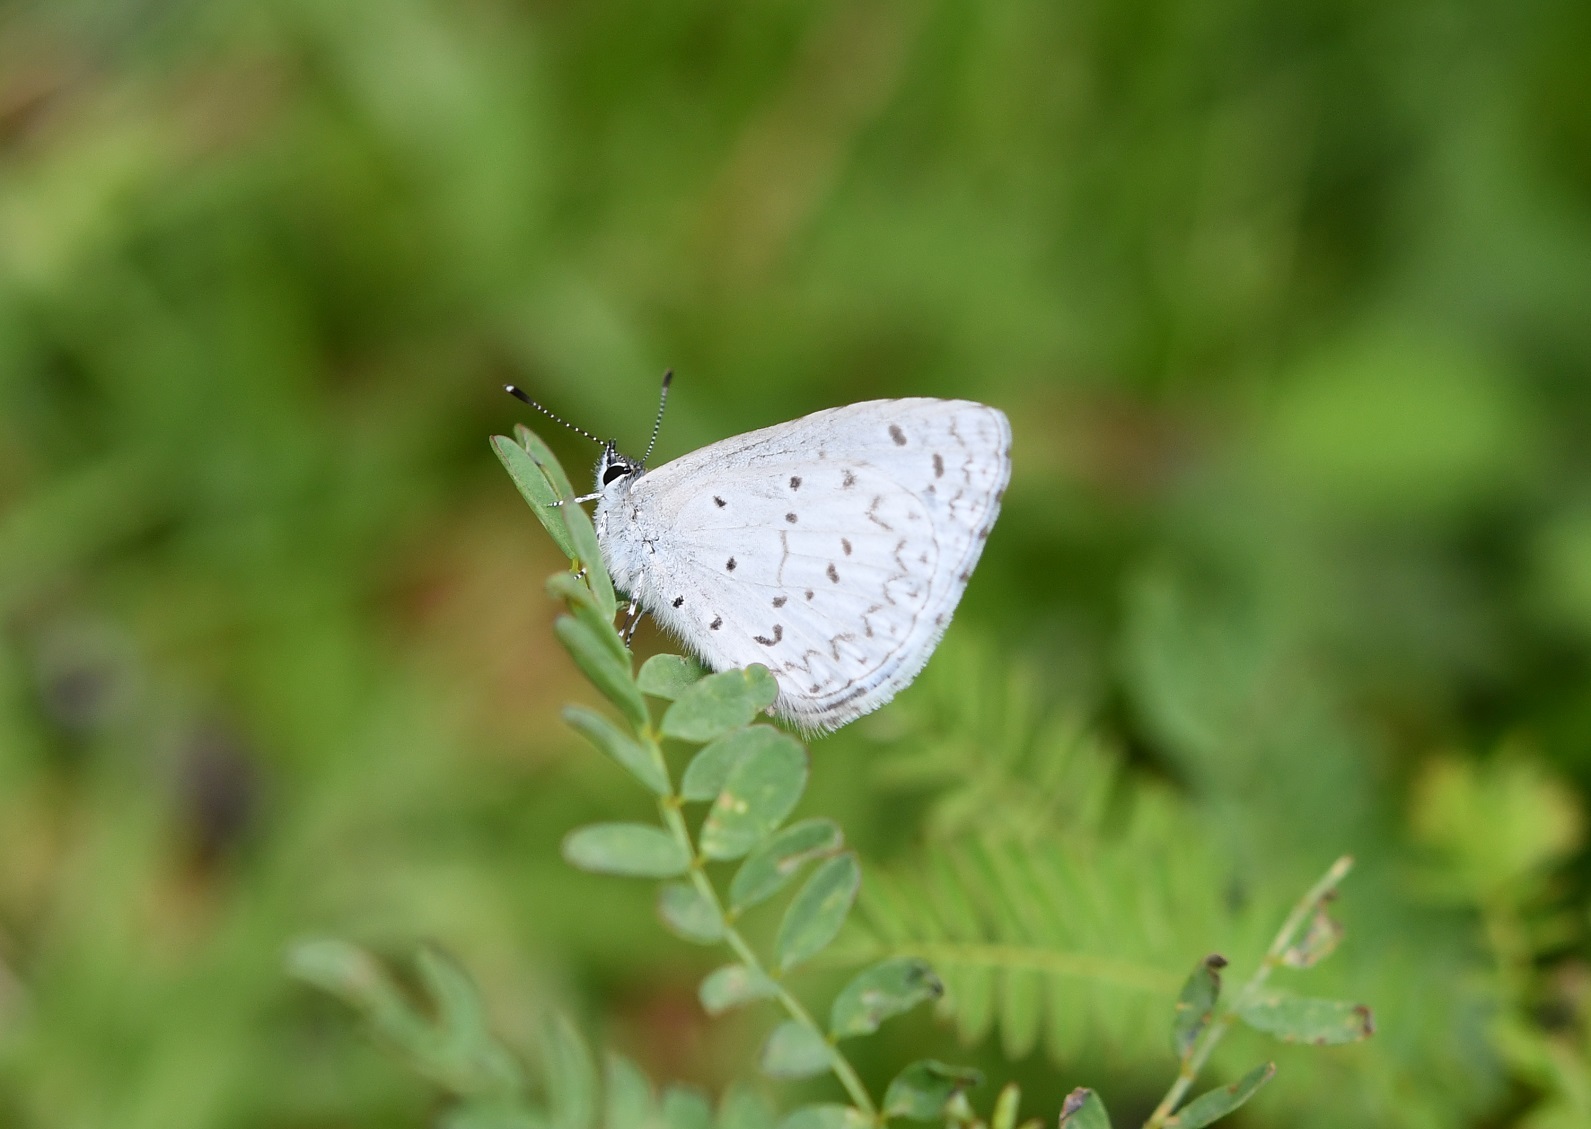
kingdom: Animalia
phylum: Arthropoda
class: Insecta
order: Lepidoptera
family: Lycaenidae
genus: Celastrina
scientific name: Celastrina ladon
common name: Spring azure
